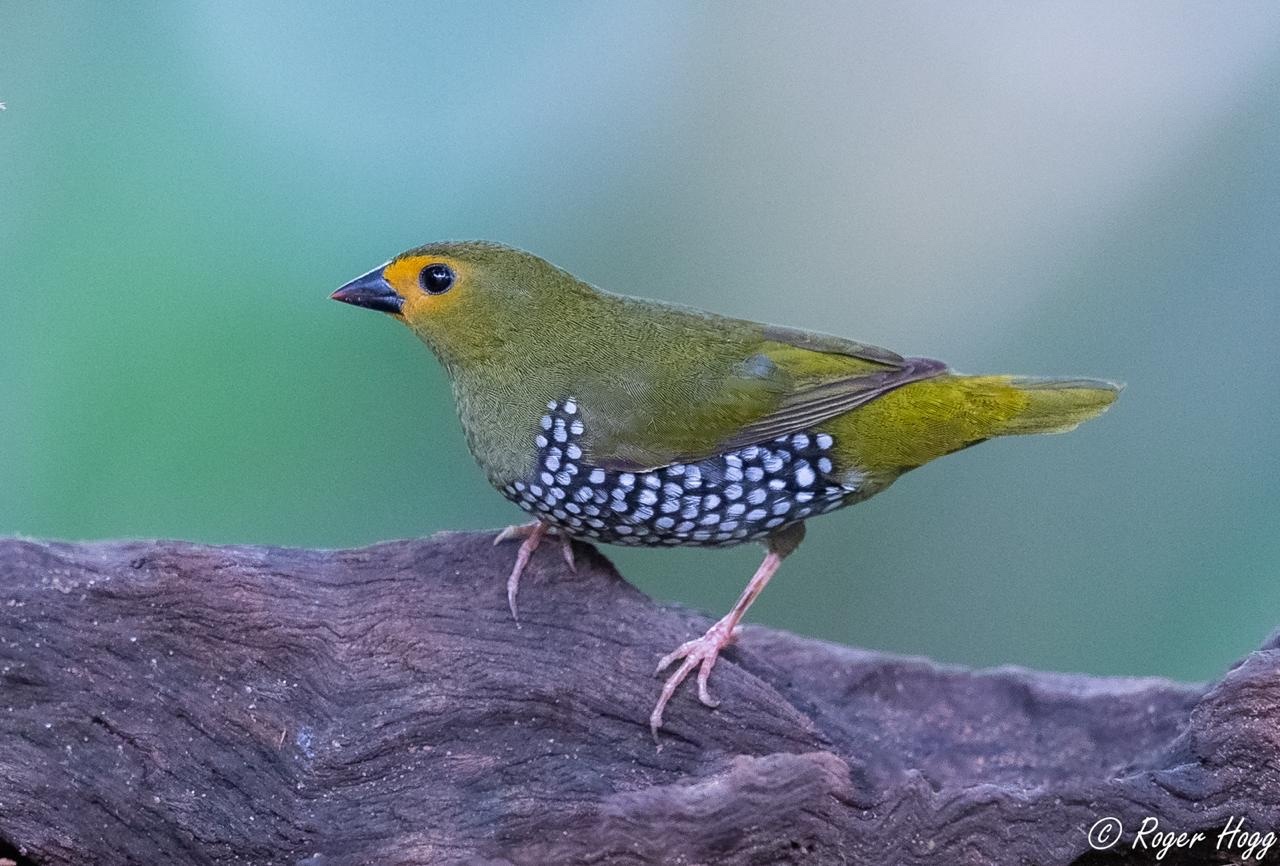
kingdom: Animalia
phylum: Chordata
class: Aves
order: Passeriformes
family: Estrildidae
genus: Mandingoa
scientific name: Mandingoa nitidula
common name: Green twinspot
